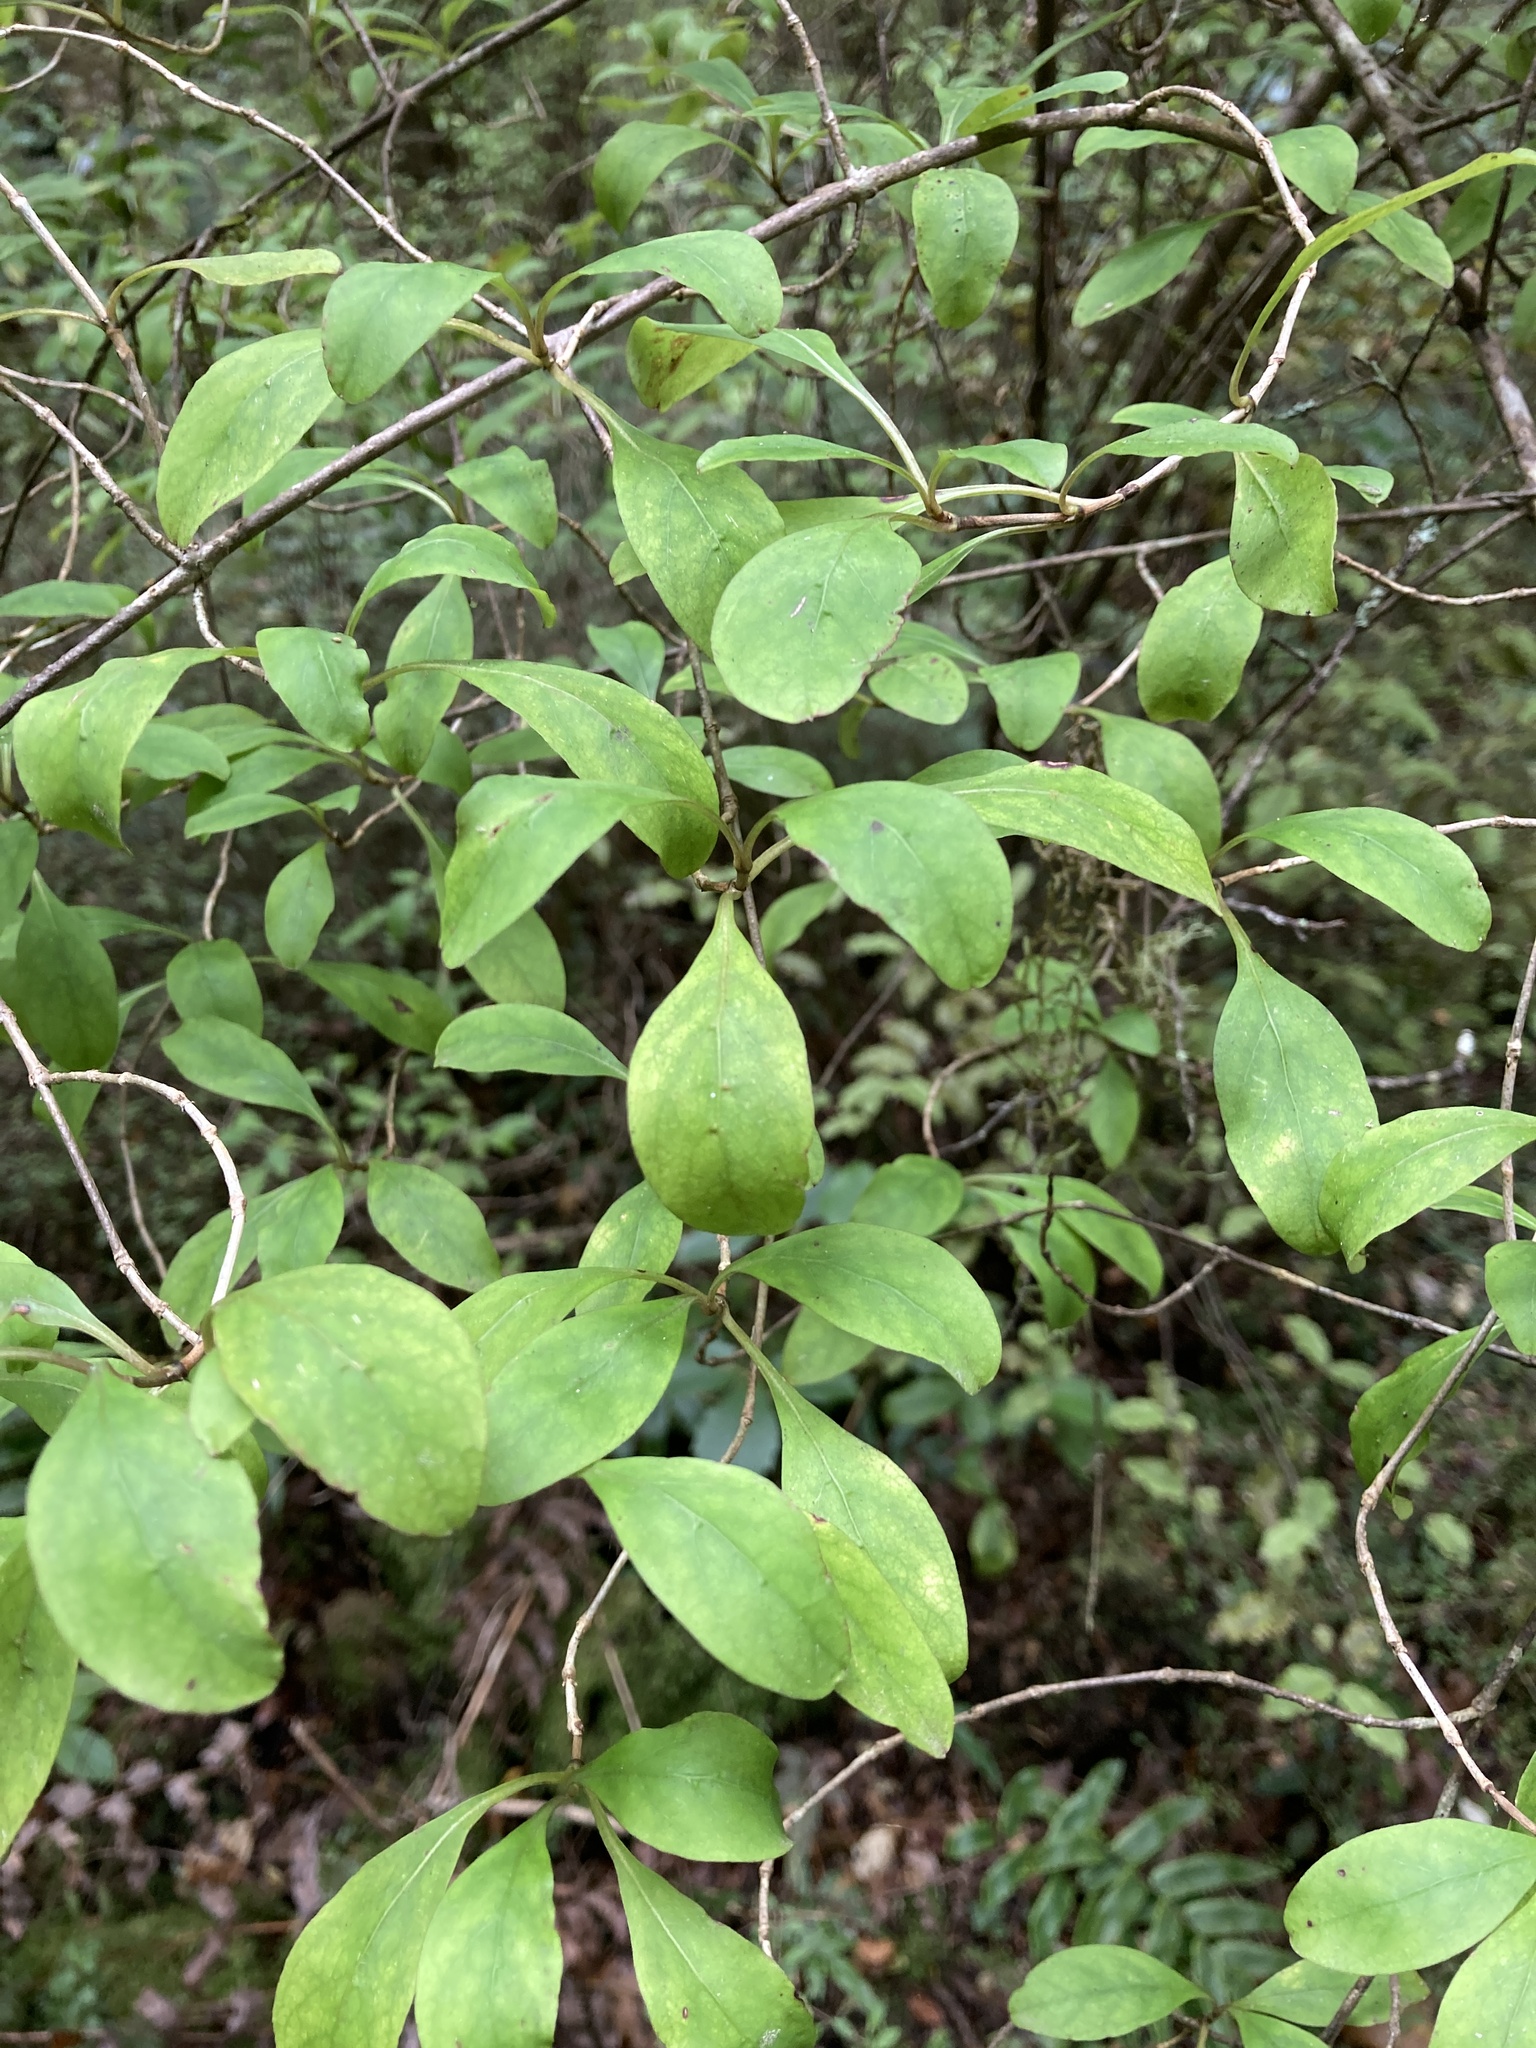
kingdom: Plantae
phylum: Tracheophyta
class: Magnoliopsida
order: Gentianales
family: Rubiaceae
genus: Coprosma
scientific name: Coprosma foetidissima
